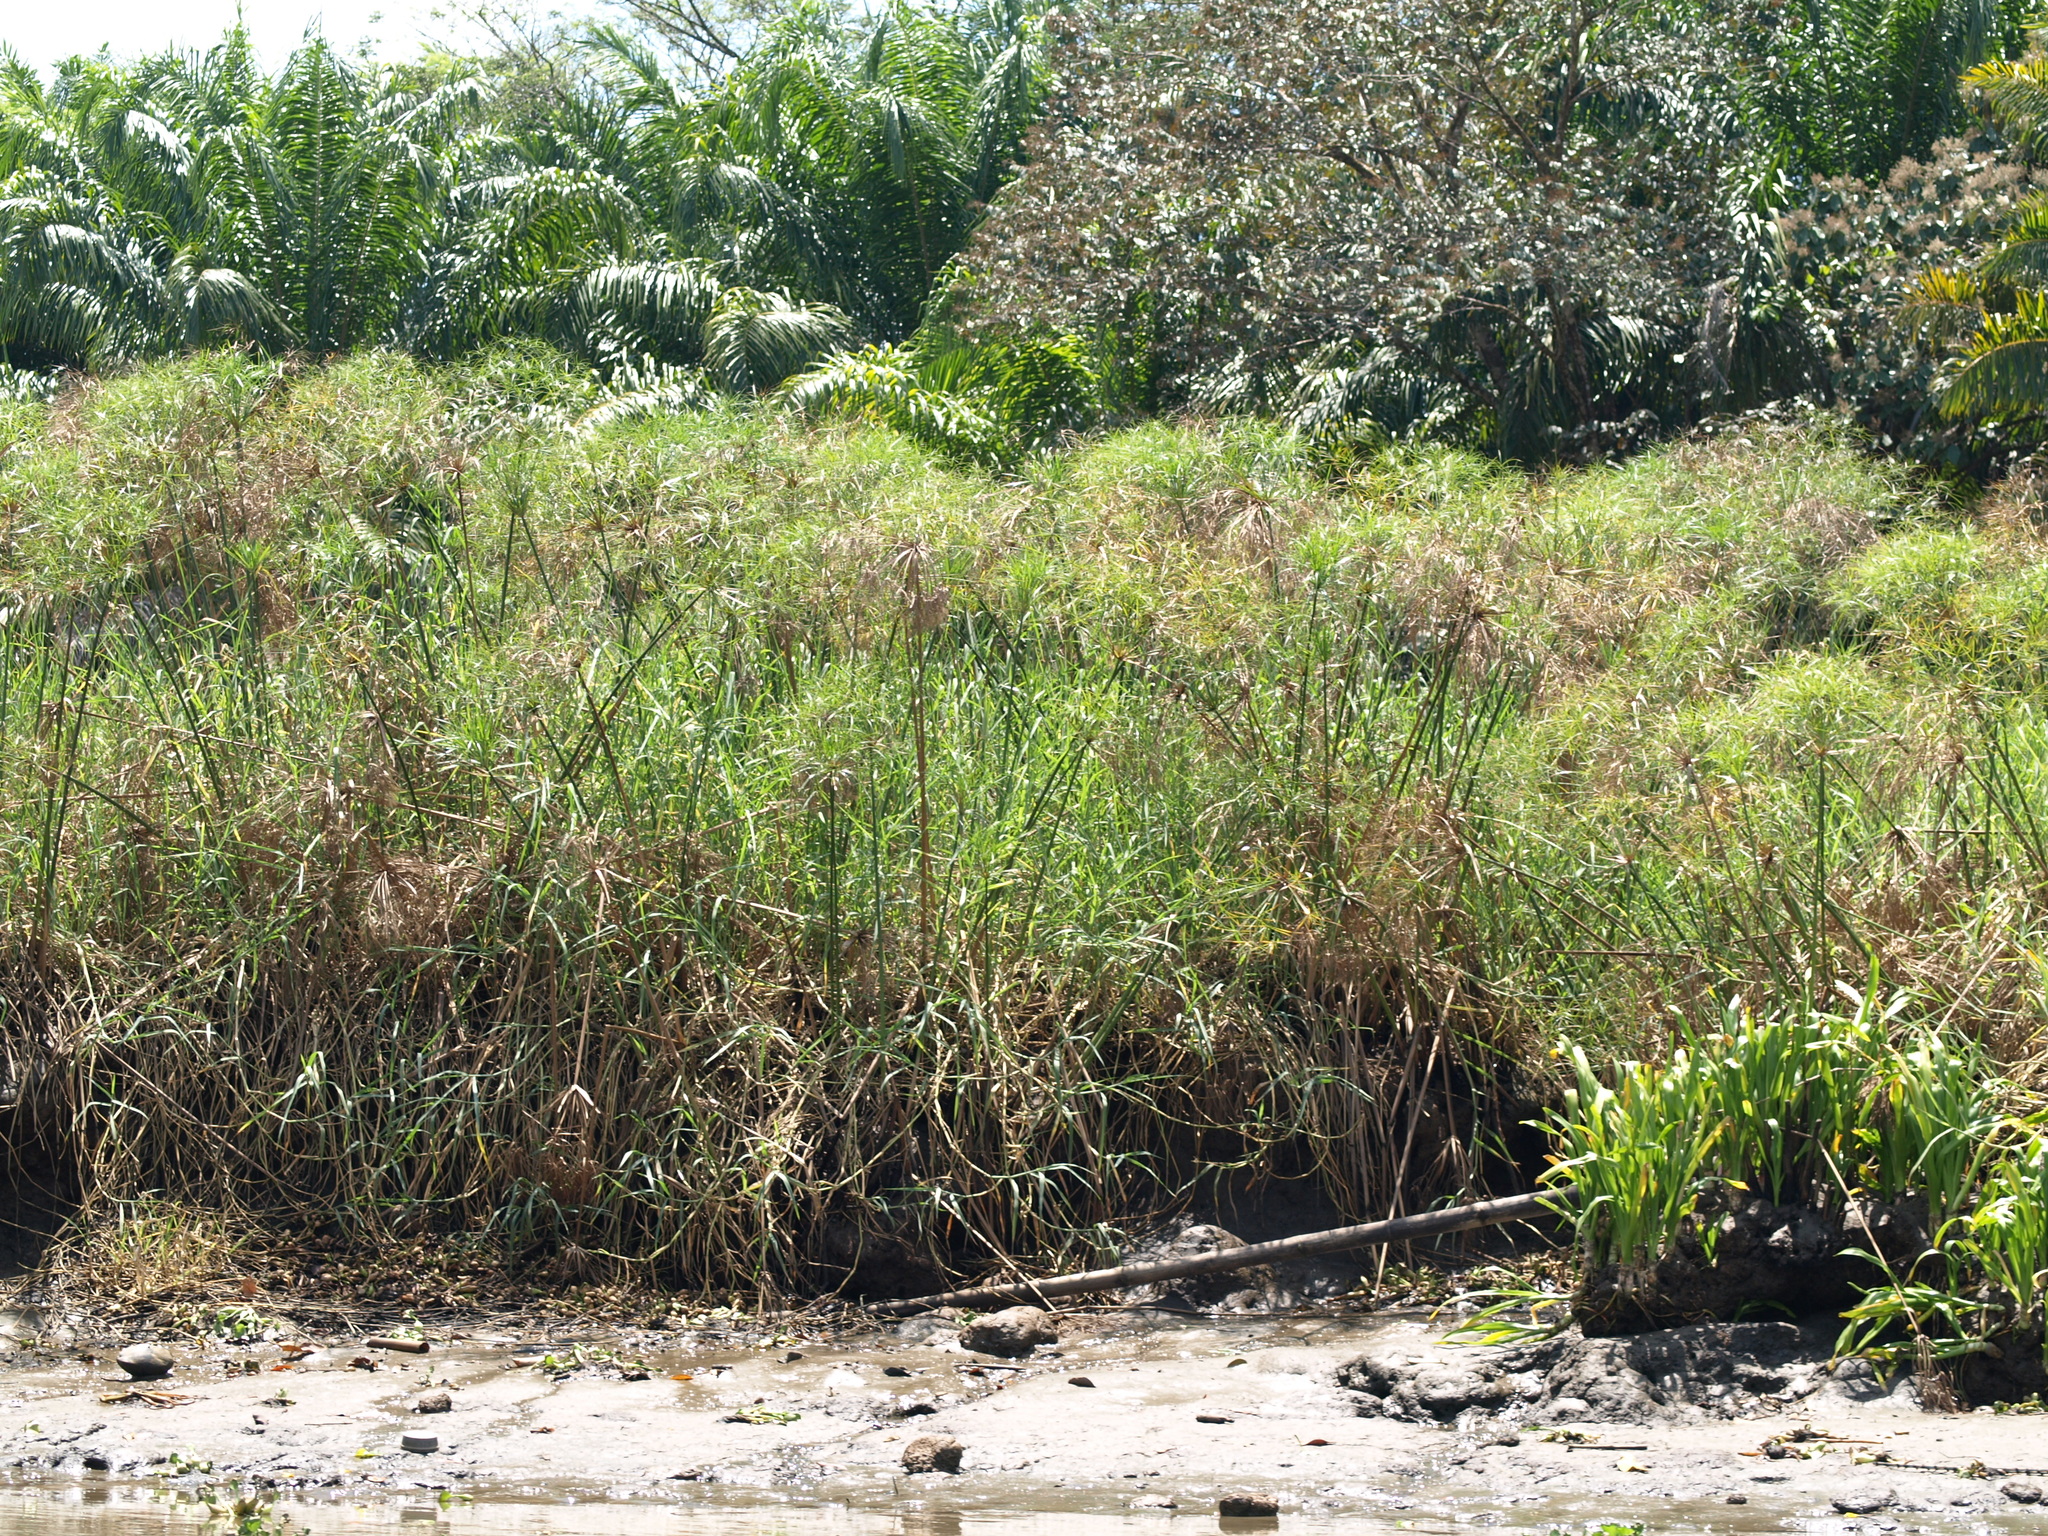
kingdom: Plantae
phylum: Tracheophyta
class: Liliopsida
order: Poales
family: Cyperaceae
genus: Cyperus
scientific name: Cyperus papyrus
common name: Papyrus
